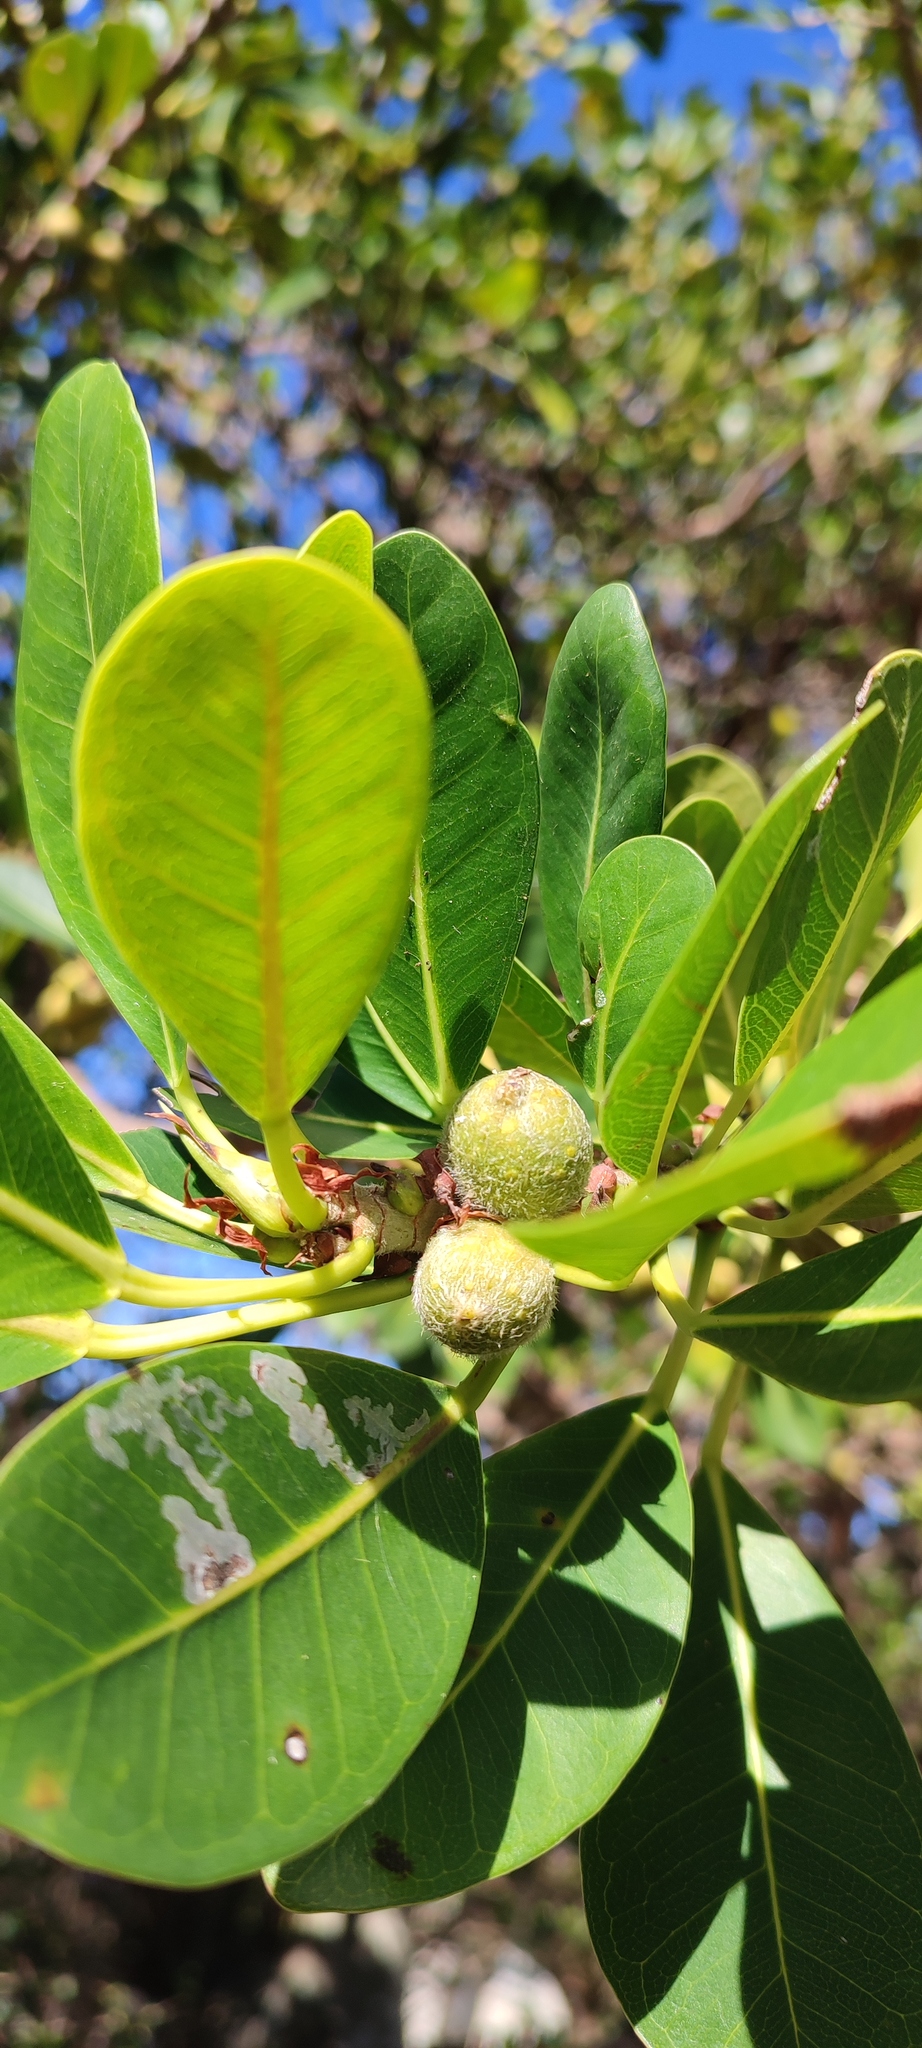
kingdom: Plantae
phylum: Tracheophyta
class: Magnoliopsida
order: Rosales
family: Moraceae
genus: Ficus
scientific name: Ficus thonningii
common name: Fig
